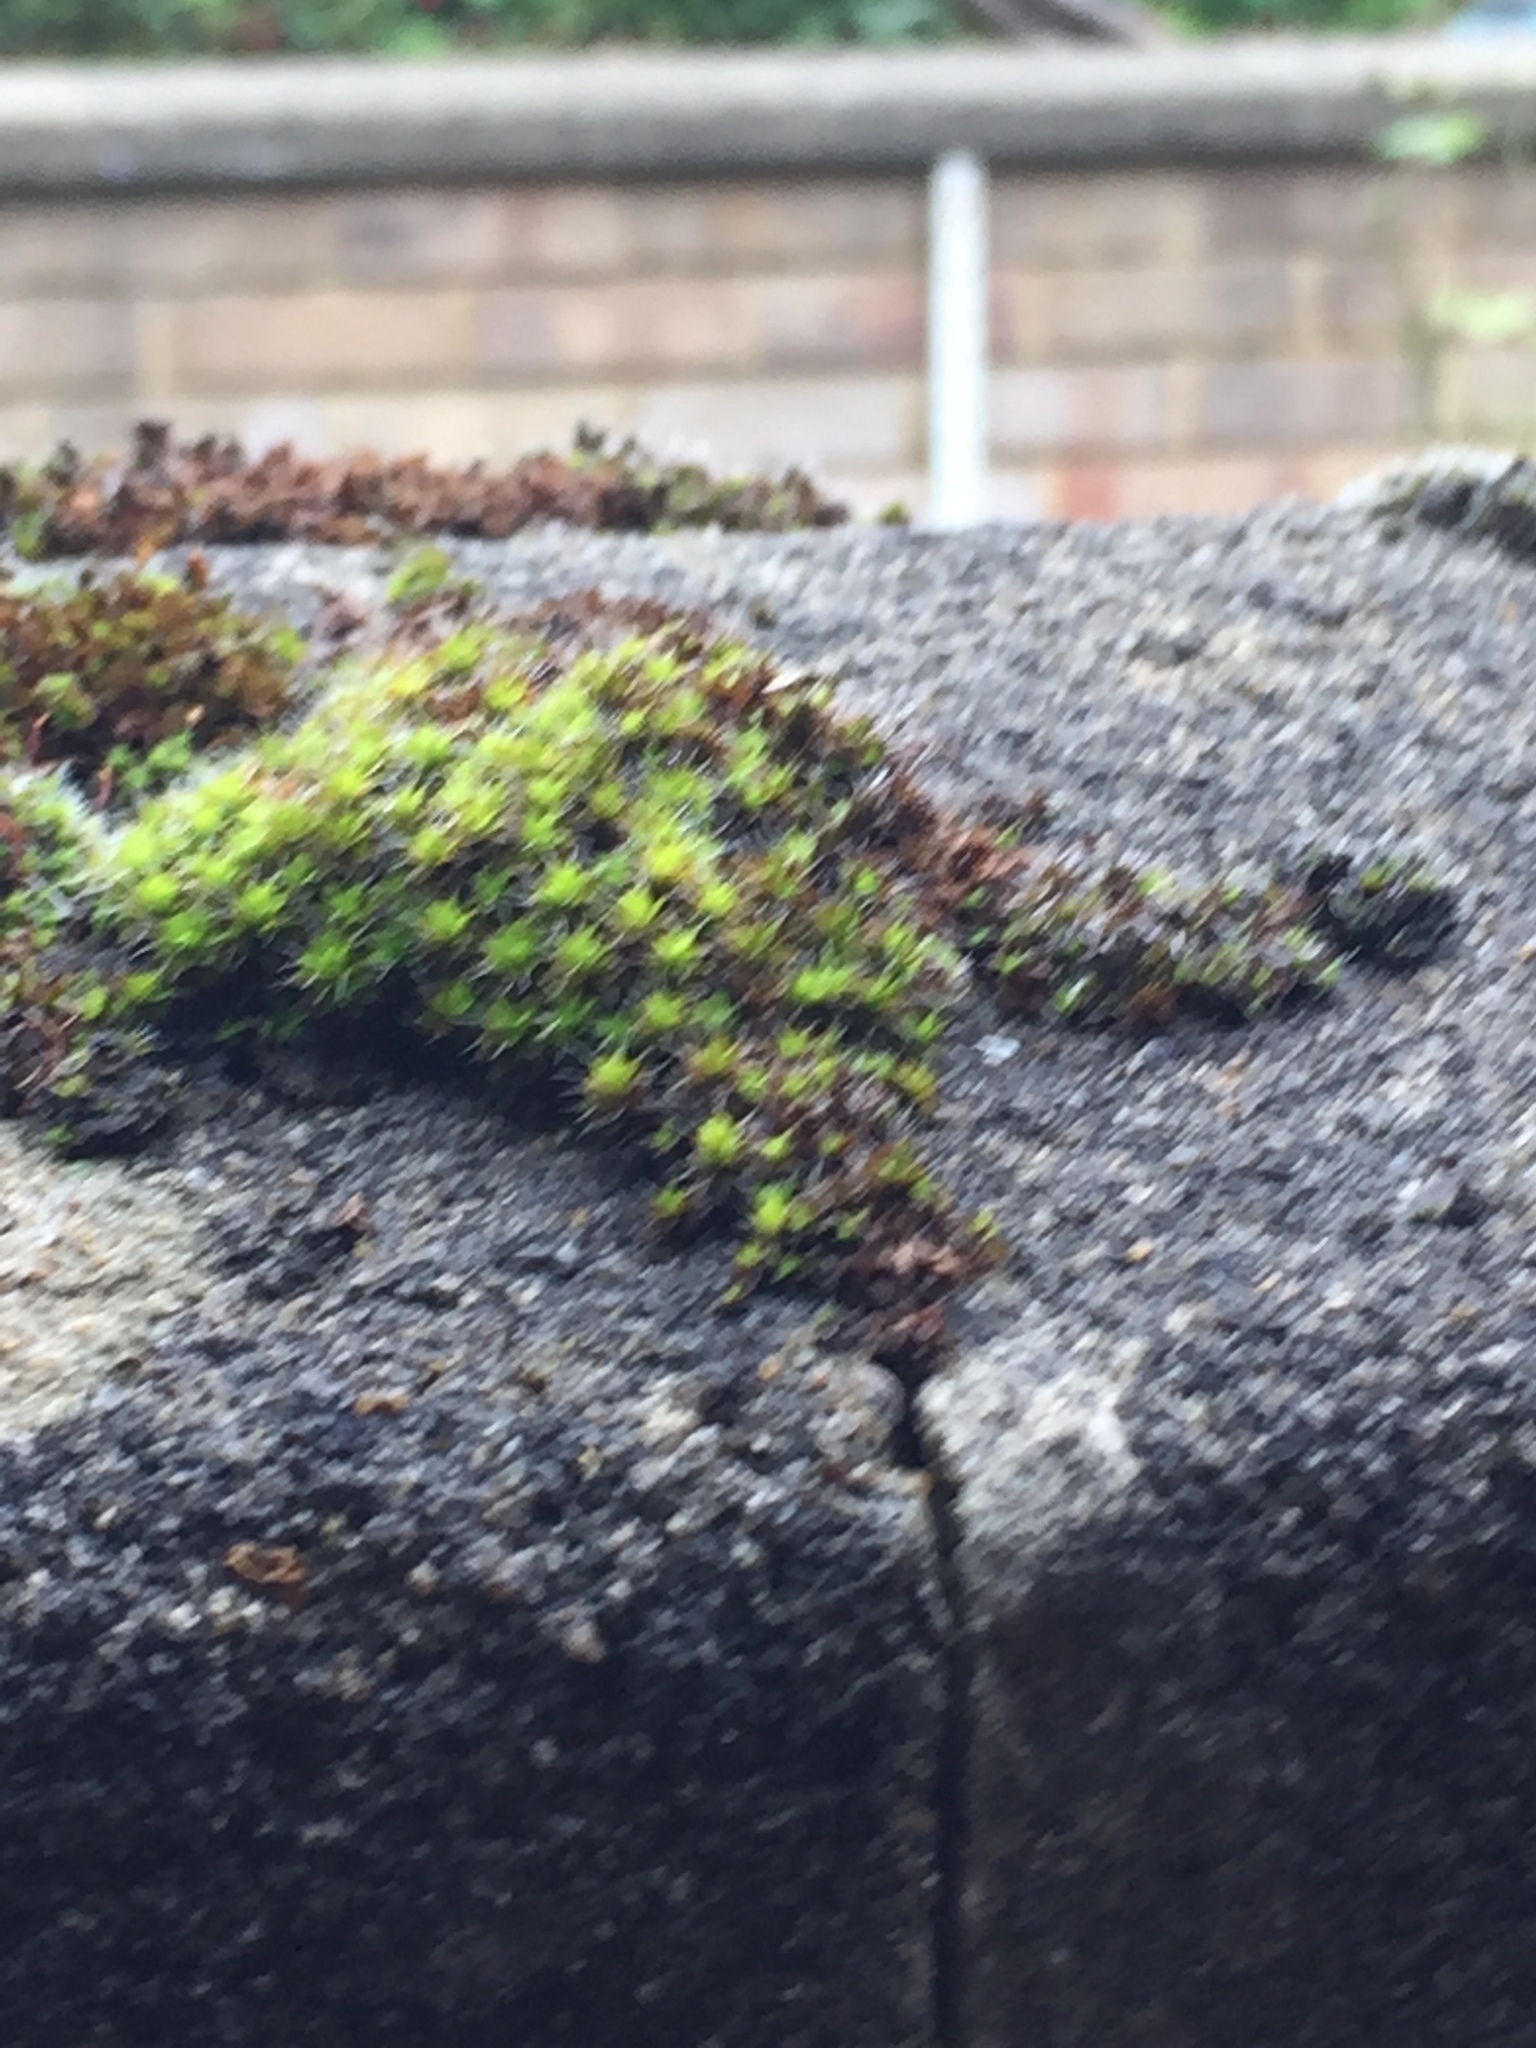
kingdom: Plantae
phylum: Bryophyta
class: Bryopsida
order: Pottiales
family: Pottiaceae
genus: Syntrichia
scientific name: Syntrichia ruralis
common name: Sidewalk screw moss
